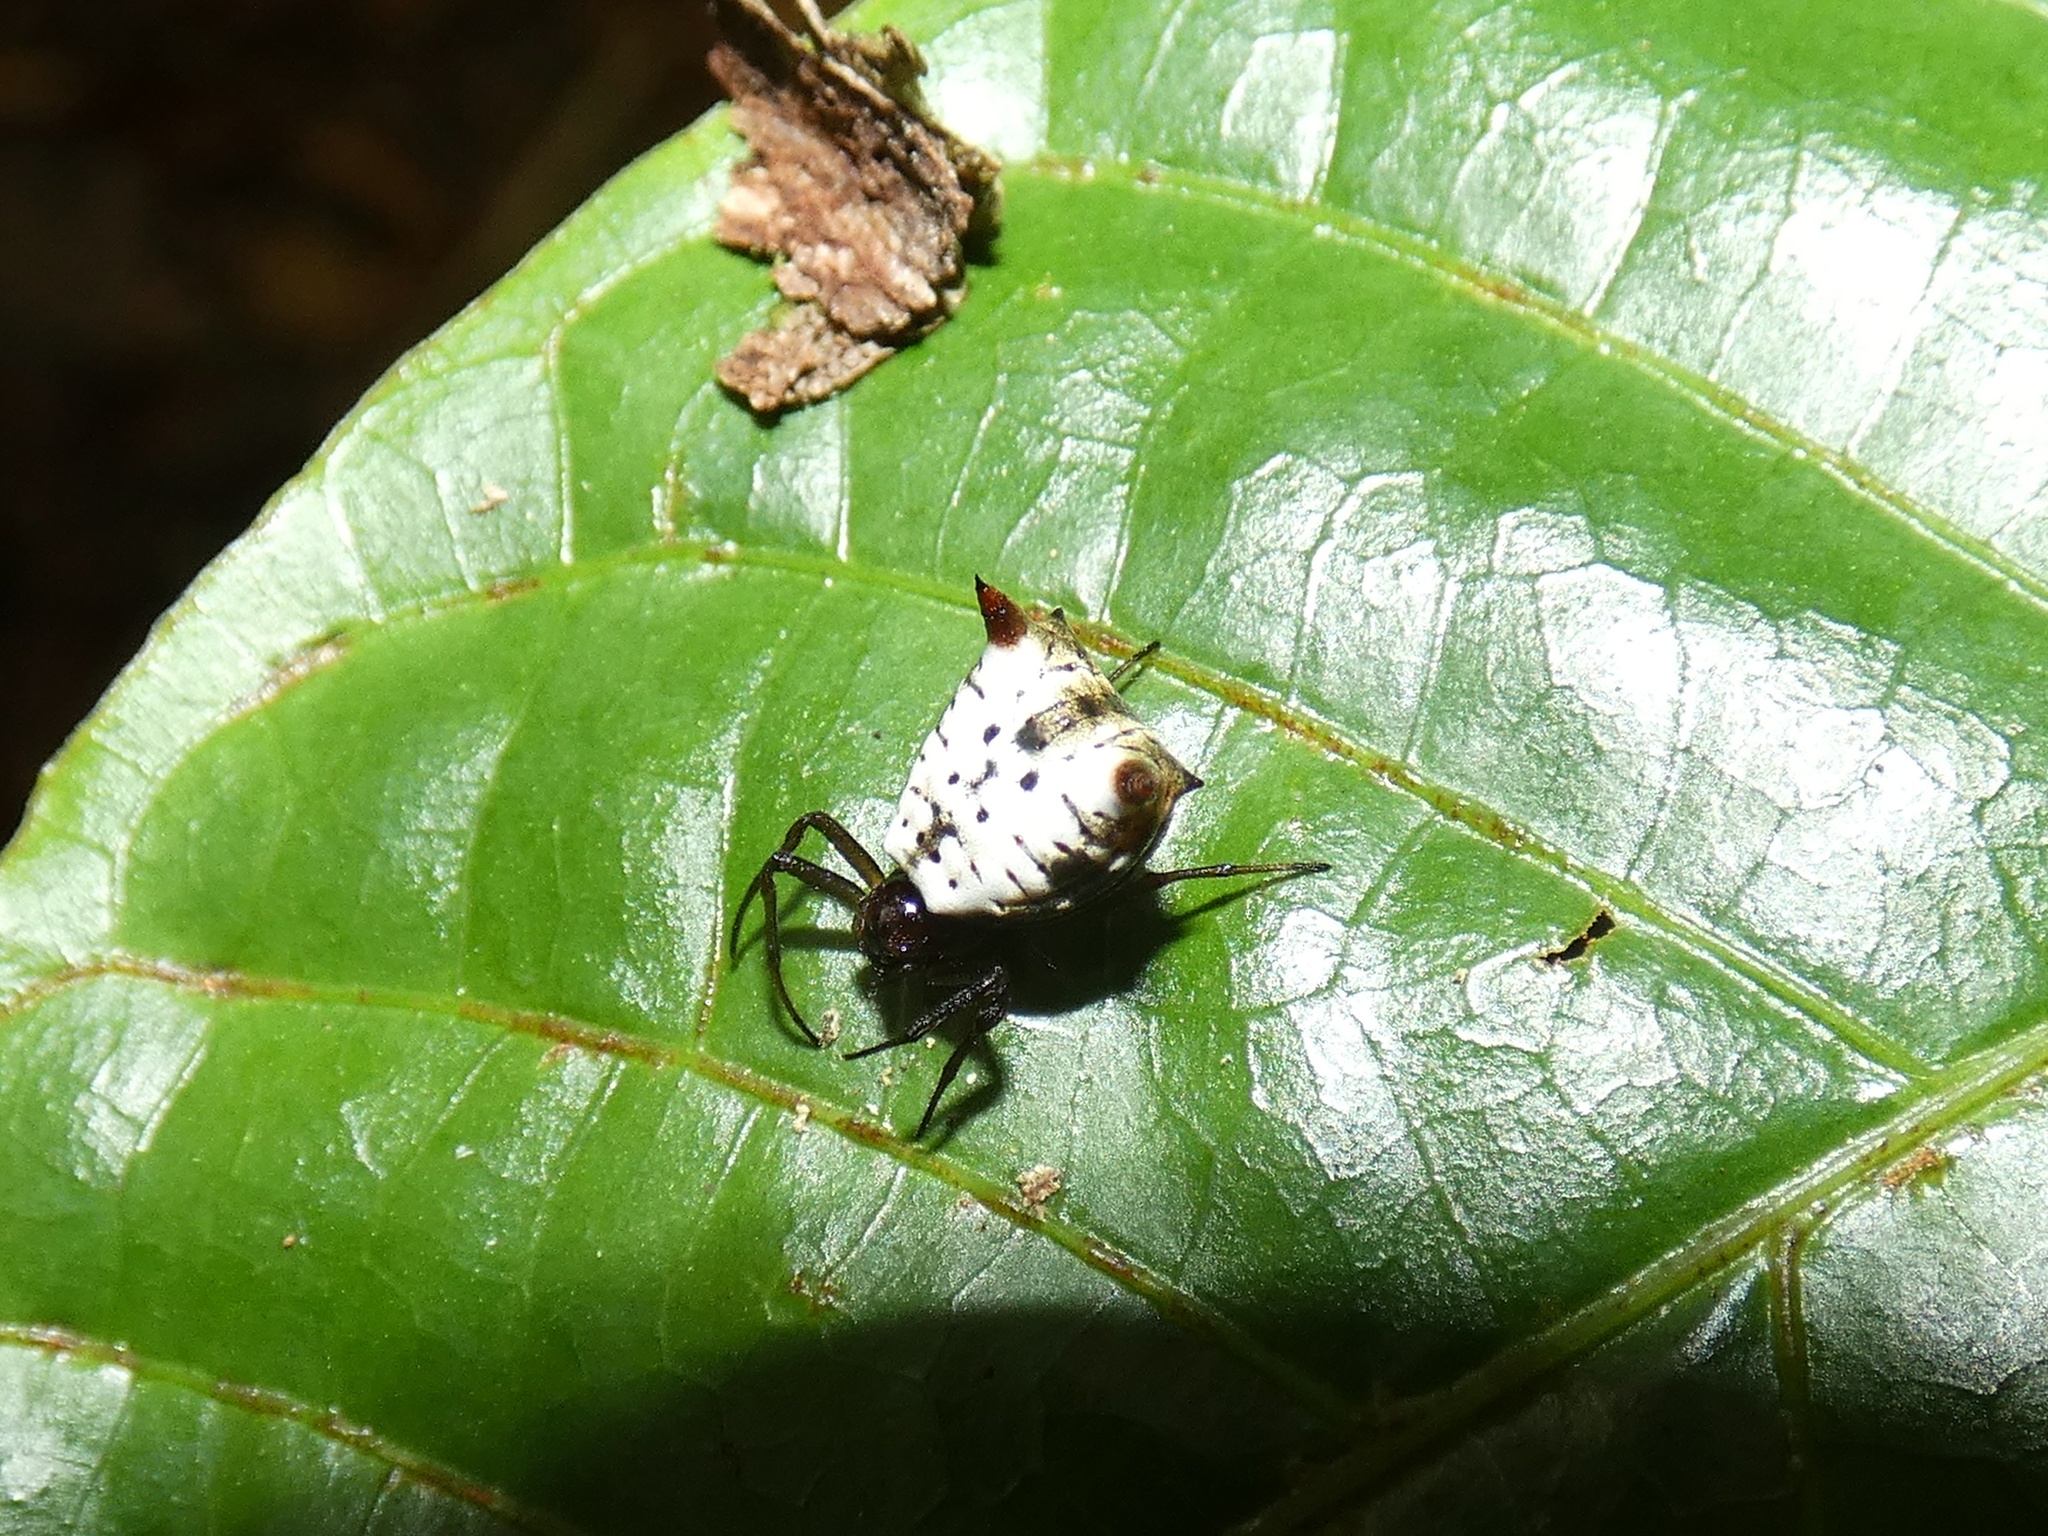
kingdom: Animalia
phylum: Arthropoda
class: Arachnida
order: Araneae
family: Araneidae
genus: Micrathena
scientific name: Micrathena saccata
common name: Orb weavers
